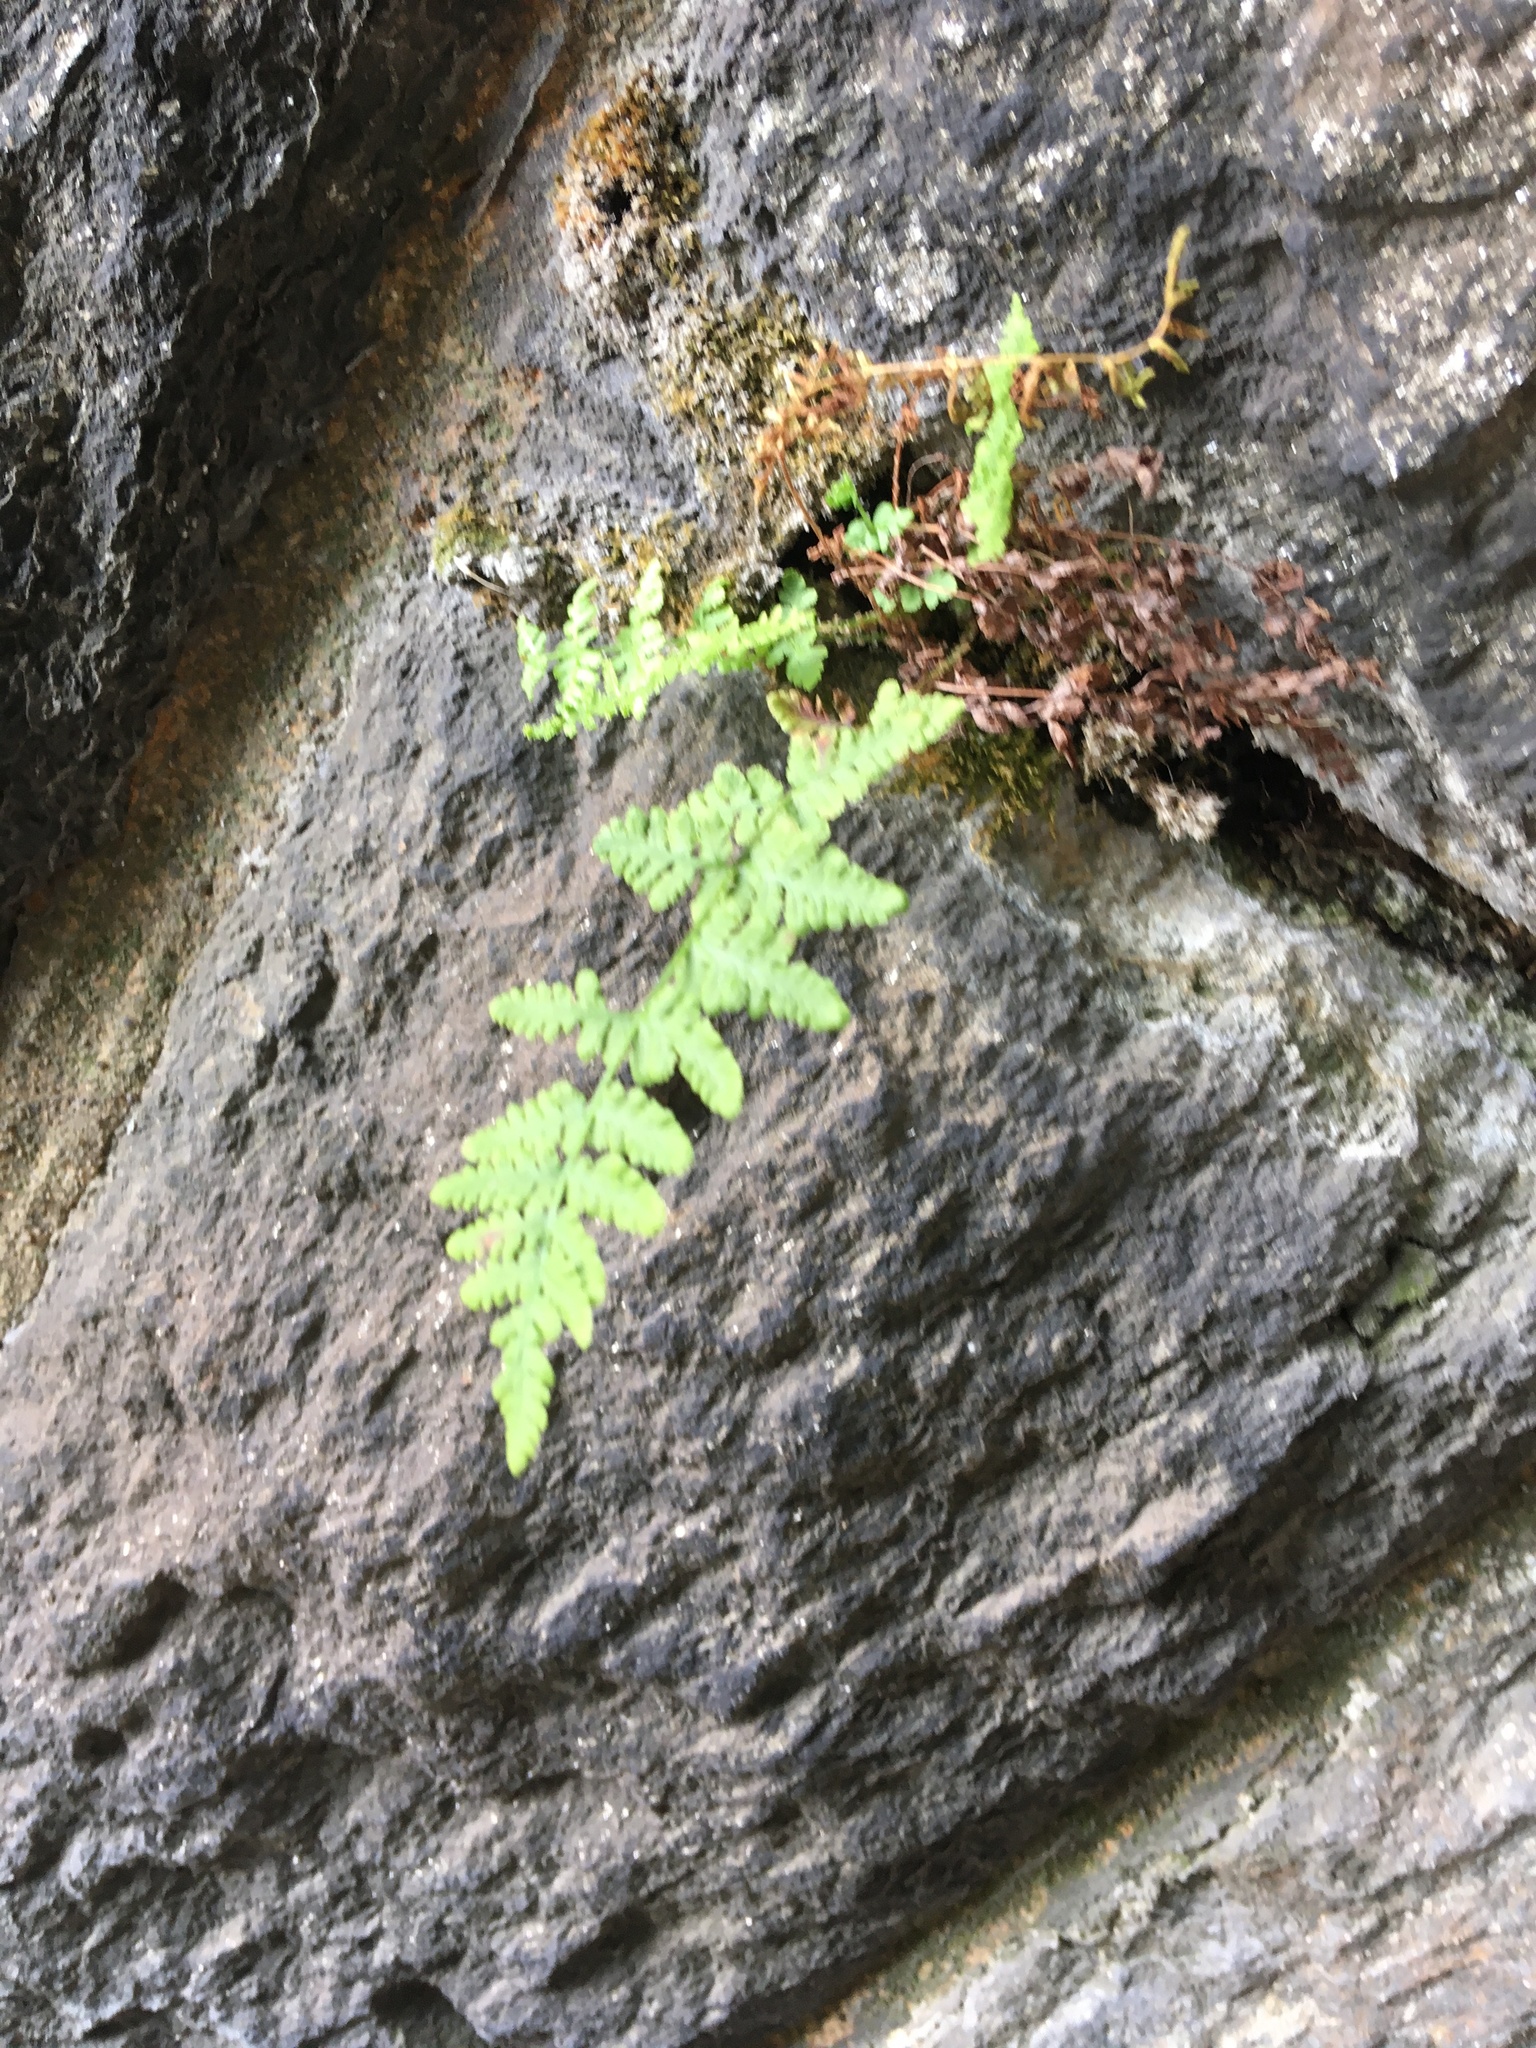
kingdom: Plantae
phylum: Tracheophyta
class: Polypodiopsida
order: Polypodiales
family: Woodsiaceae
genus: Physematium
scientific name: Physematium obtusum
